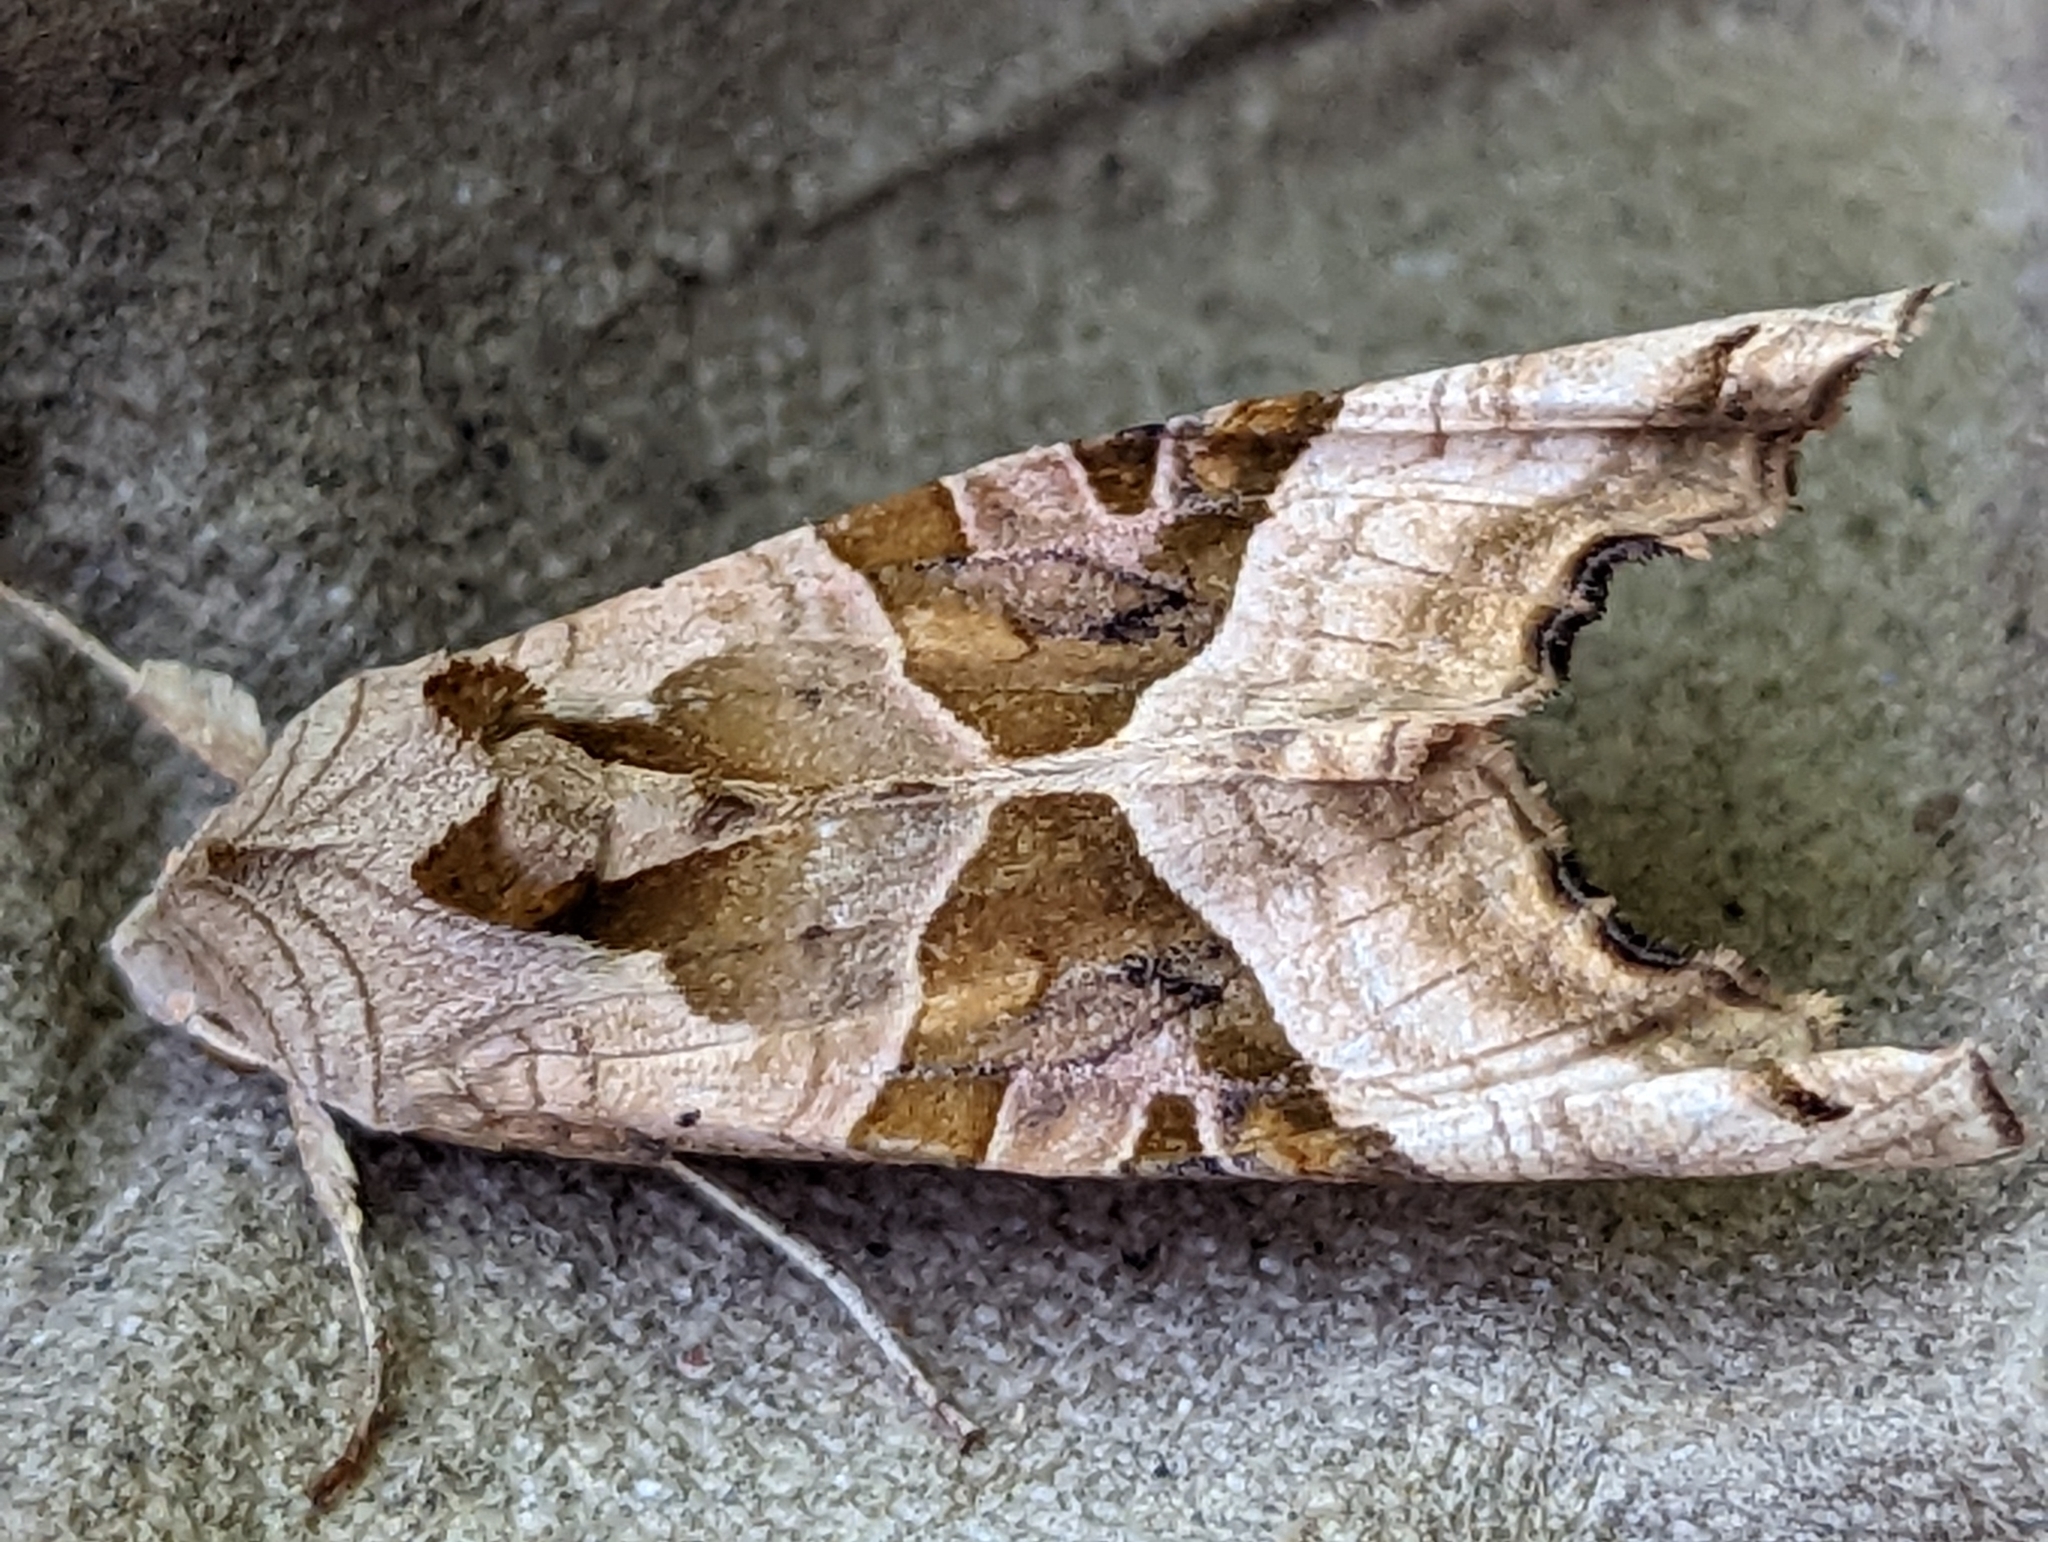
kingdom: Animalia
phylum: Arthropoda
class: Insecta
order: Lepidoptera
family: Noctuidae
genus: Phlogophora
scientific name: Phlogophora meticulosa
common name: Angle shades
